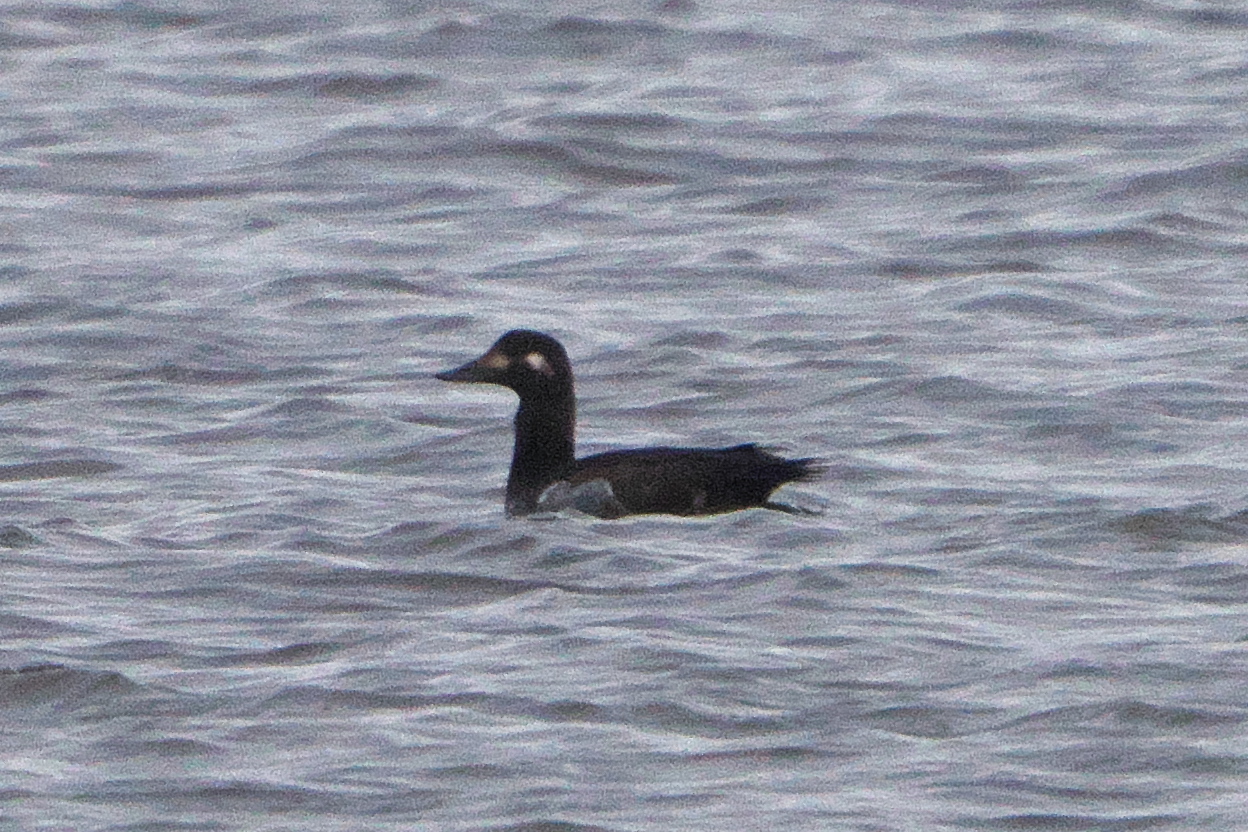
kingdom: Animalia
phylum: Chordata
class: Aves
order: Anseriformes
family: Anatidae
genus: Melanitta
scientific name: Melanitta fusca
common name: Velvet scoter
